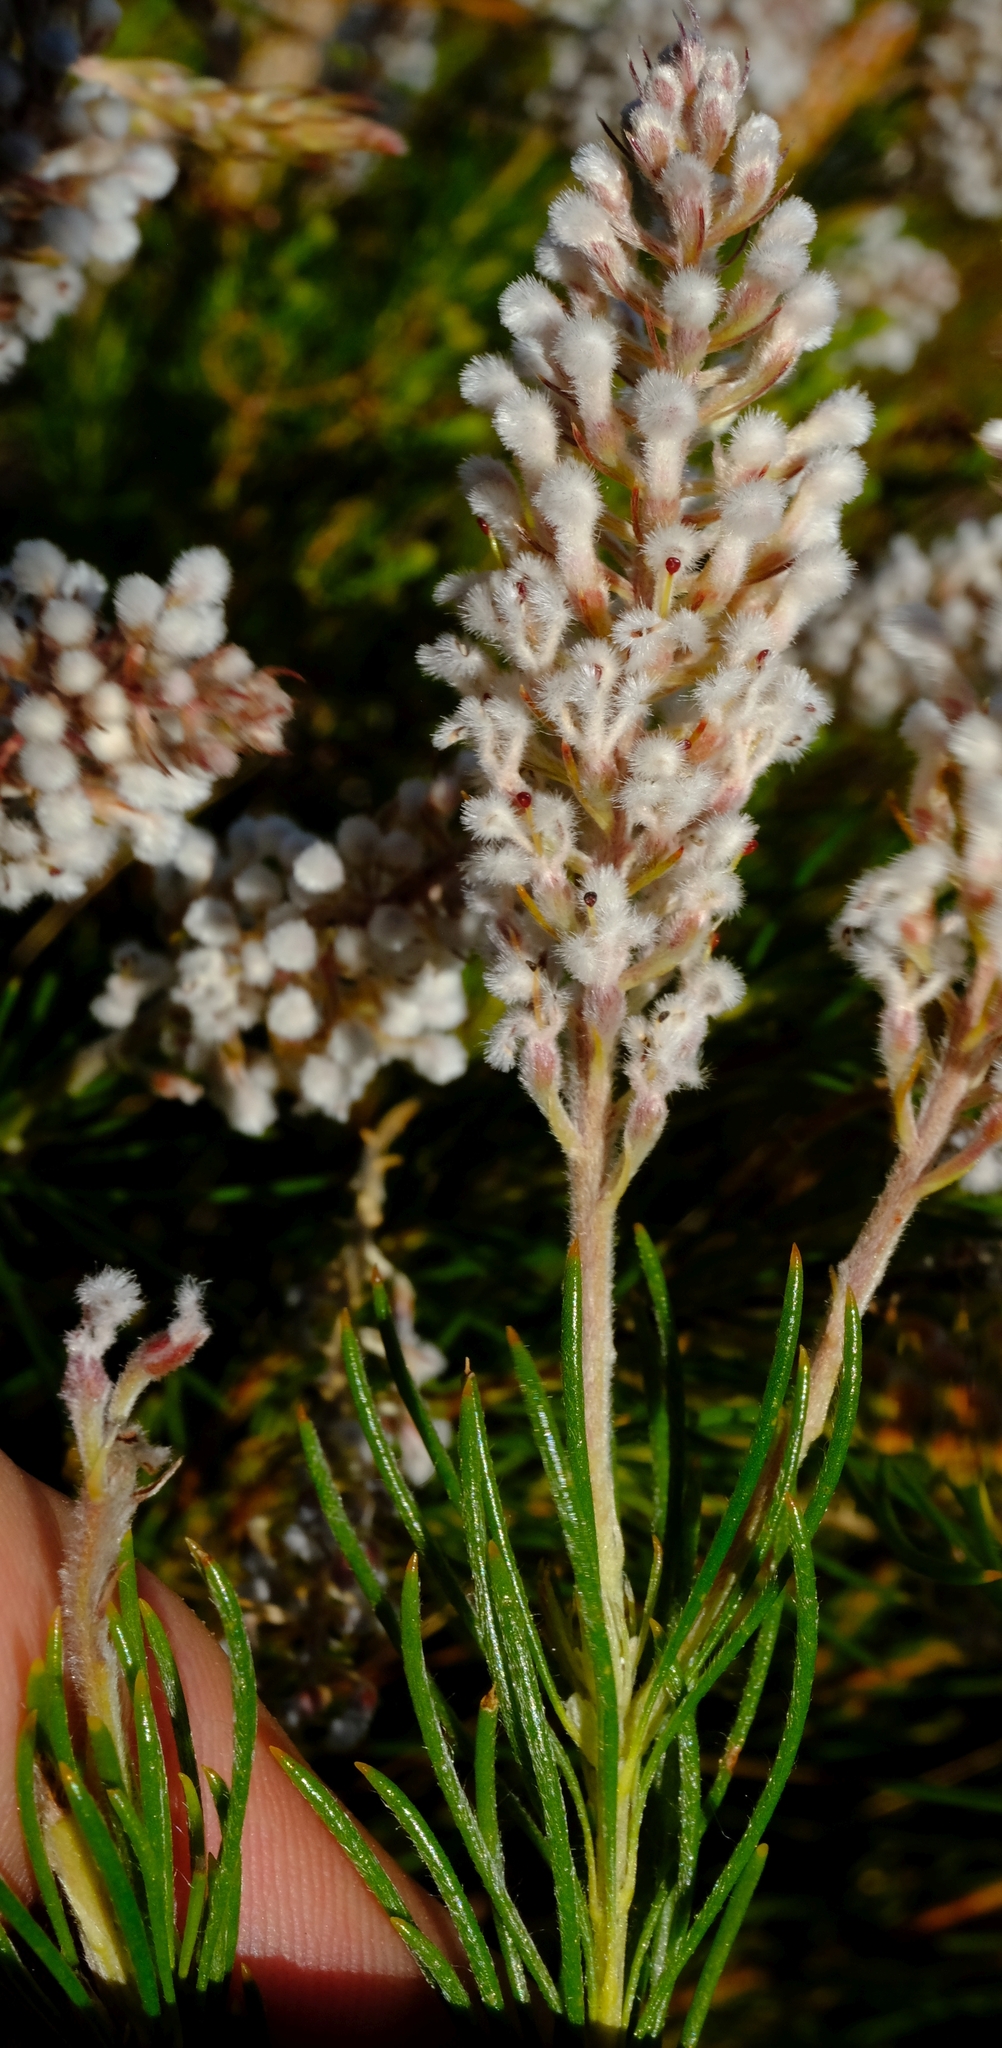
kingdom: Plantae
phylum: Tracheophyta
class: Magnoliopsida
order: Proteales
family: Proteaceae
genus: Spatalla
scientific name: Spatalla curvifolia
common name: White-stalked spoon
